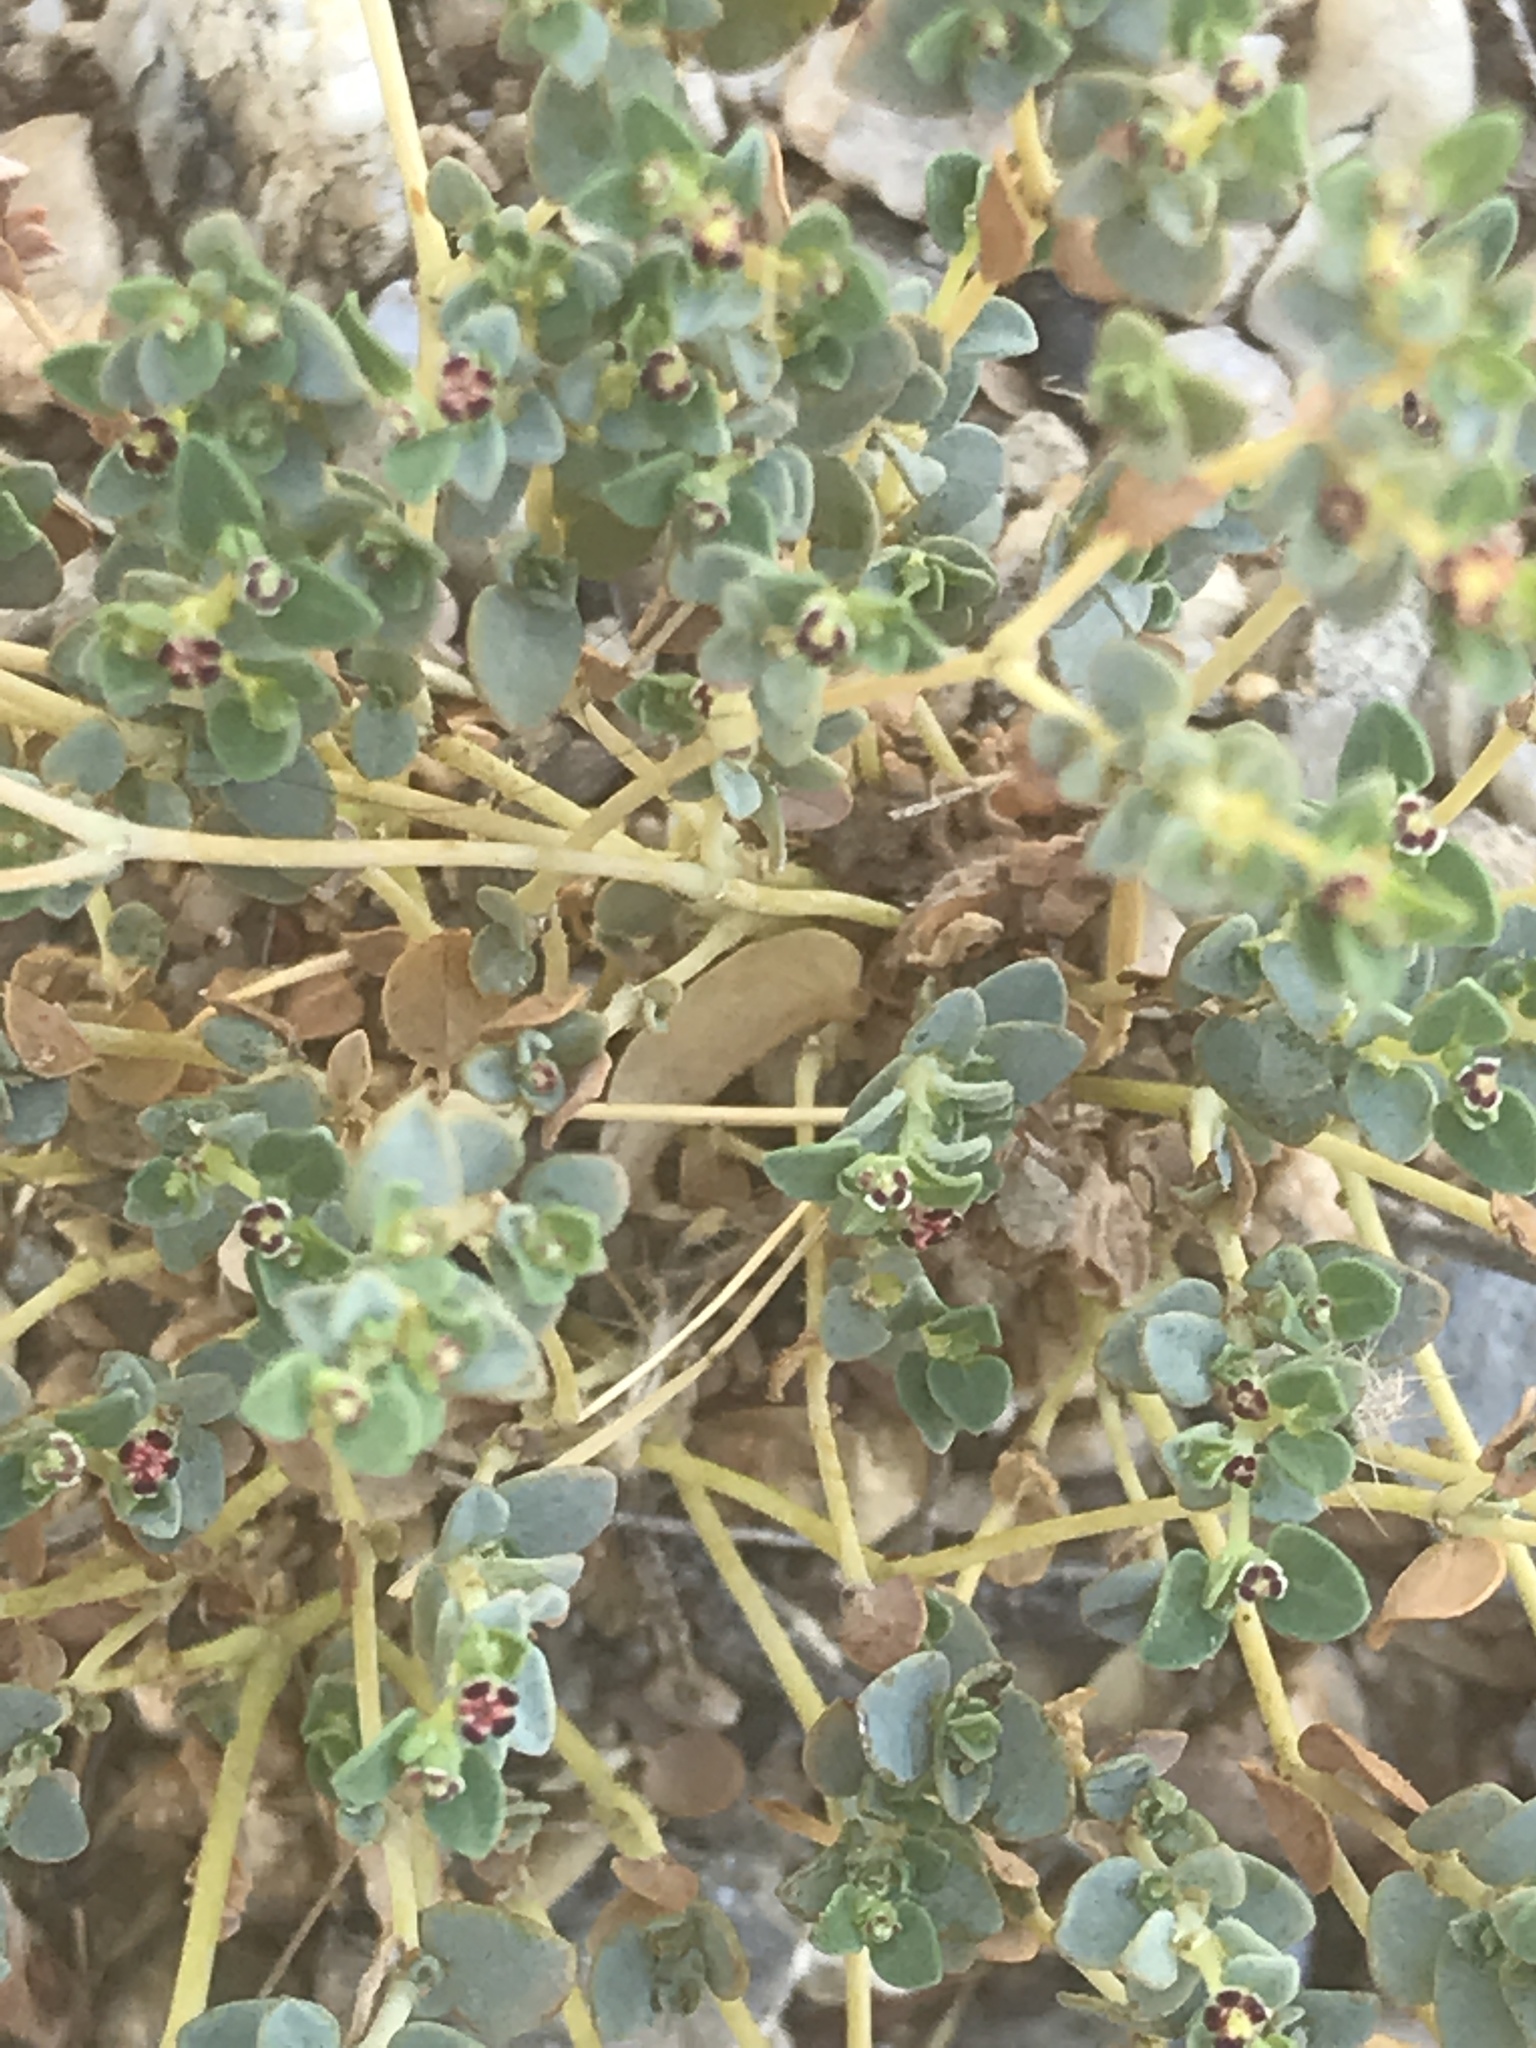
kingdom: Plantae
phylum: Tracheophyta
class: Magnoliopsida
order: Malpighiales
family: Euphorbiaceae
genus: Euphorbia
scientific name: Euphorbia polycarpa
